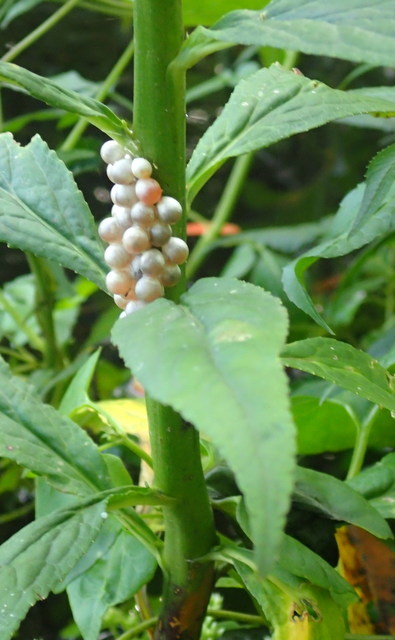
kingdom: Animalia
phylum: Mollusca
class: Gastropoda
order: Architaenioglossa
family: Ampullariidae
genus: Pomacea
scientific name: Pomacea paludosa
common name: Florida applesnail
